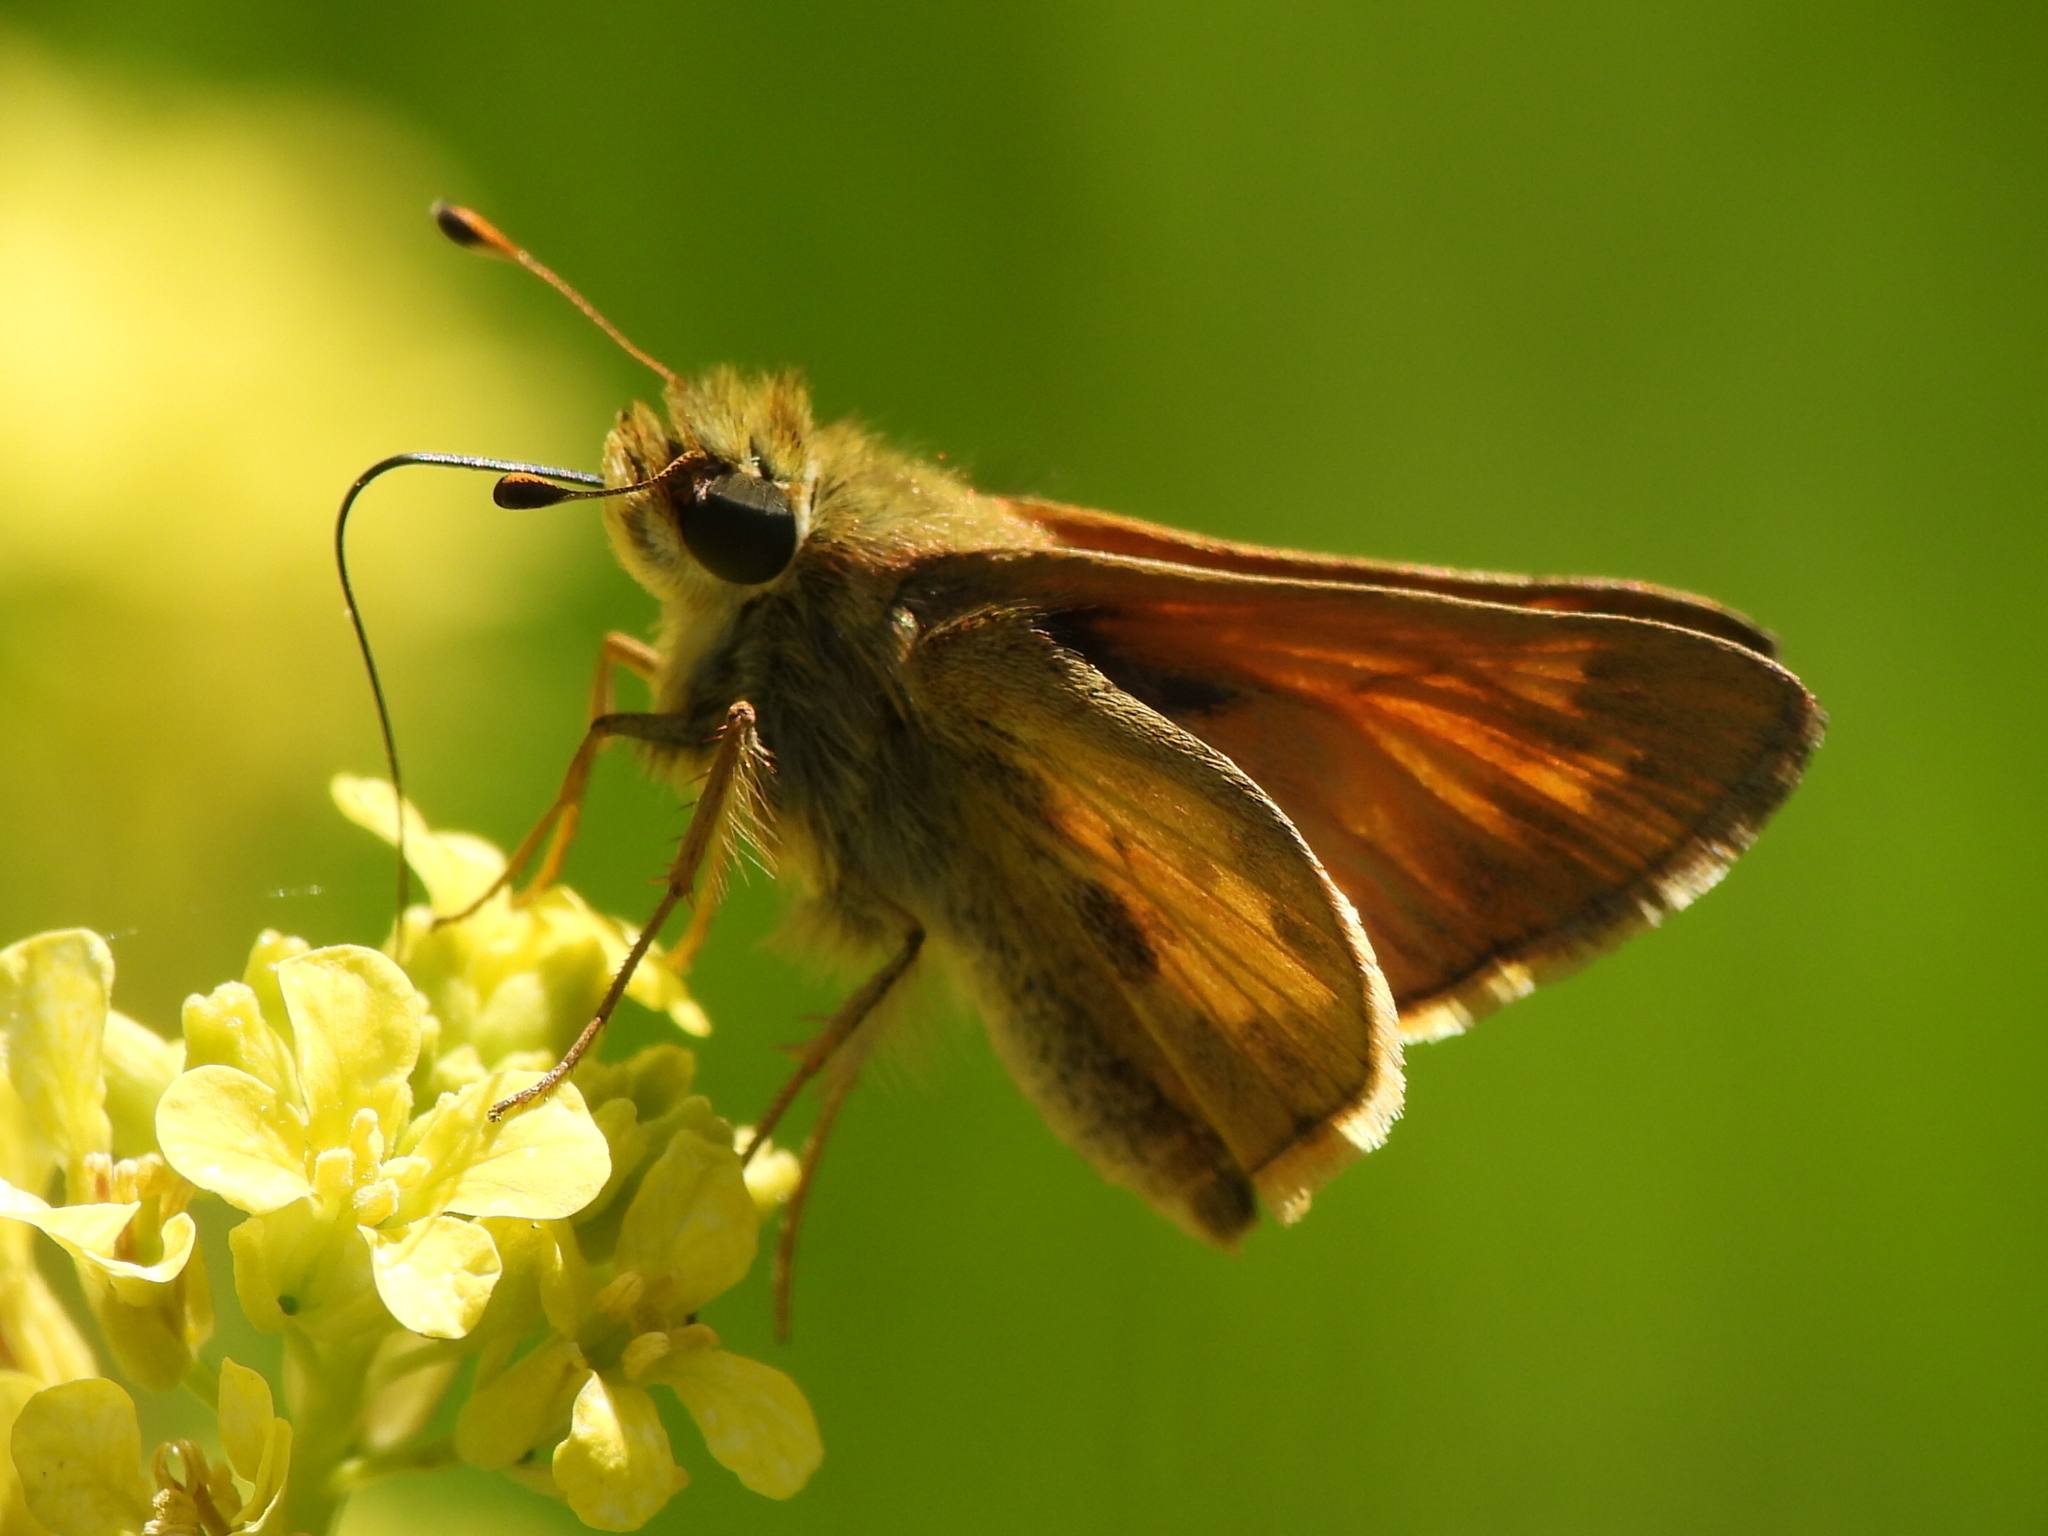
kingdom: Animalia
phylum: Arthropoda
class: Insecta
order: Lepidoptera
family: Hesperiidae
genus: Atalopedes
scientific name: Atalopedes
